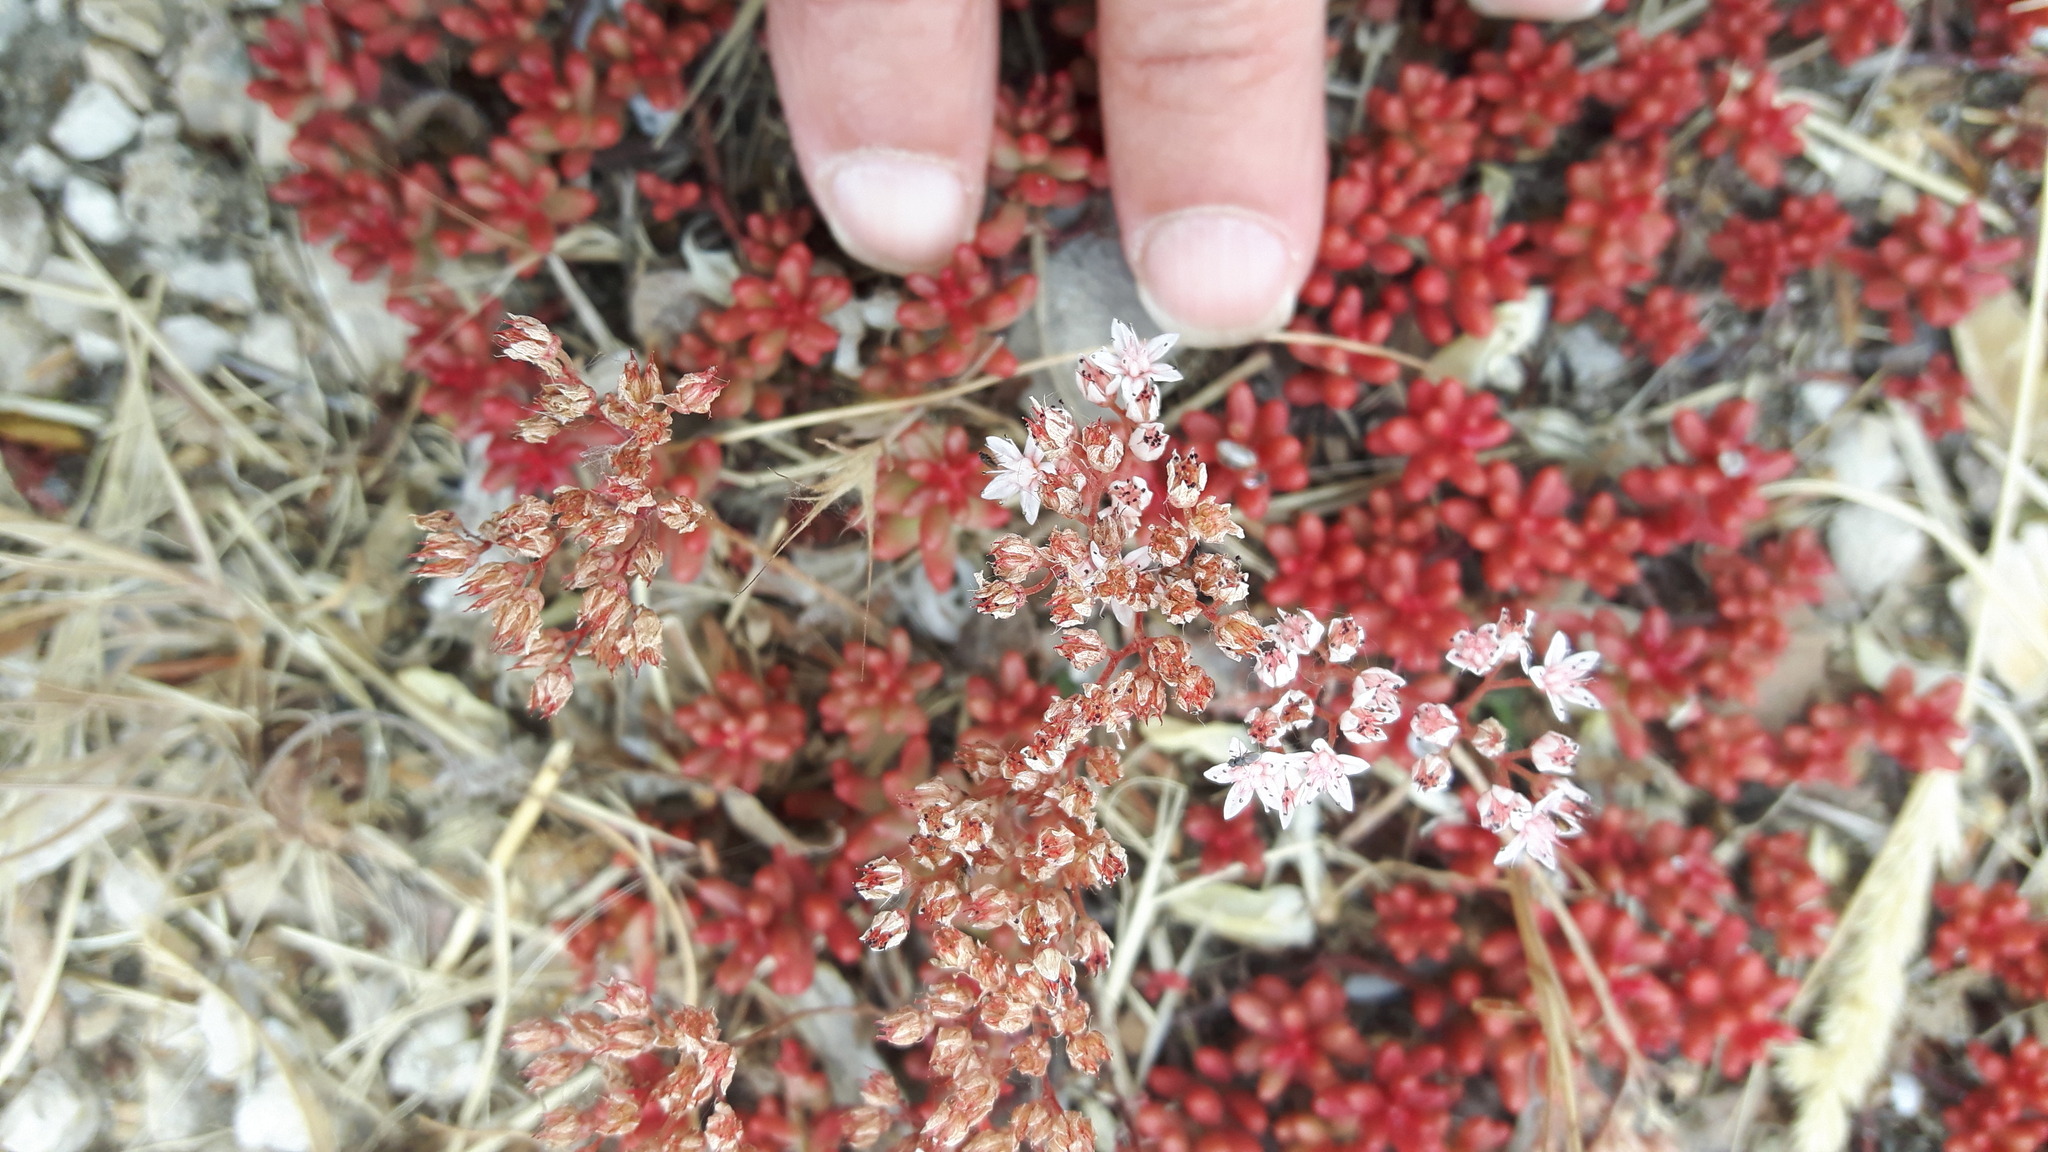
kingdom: Plantae
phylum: Tracheophyta
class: Magnoliopsida
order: Saxifragales
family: Crassulaceae
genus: Sedum
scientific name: Sedum album
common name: White stonecrop
